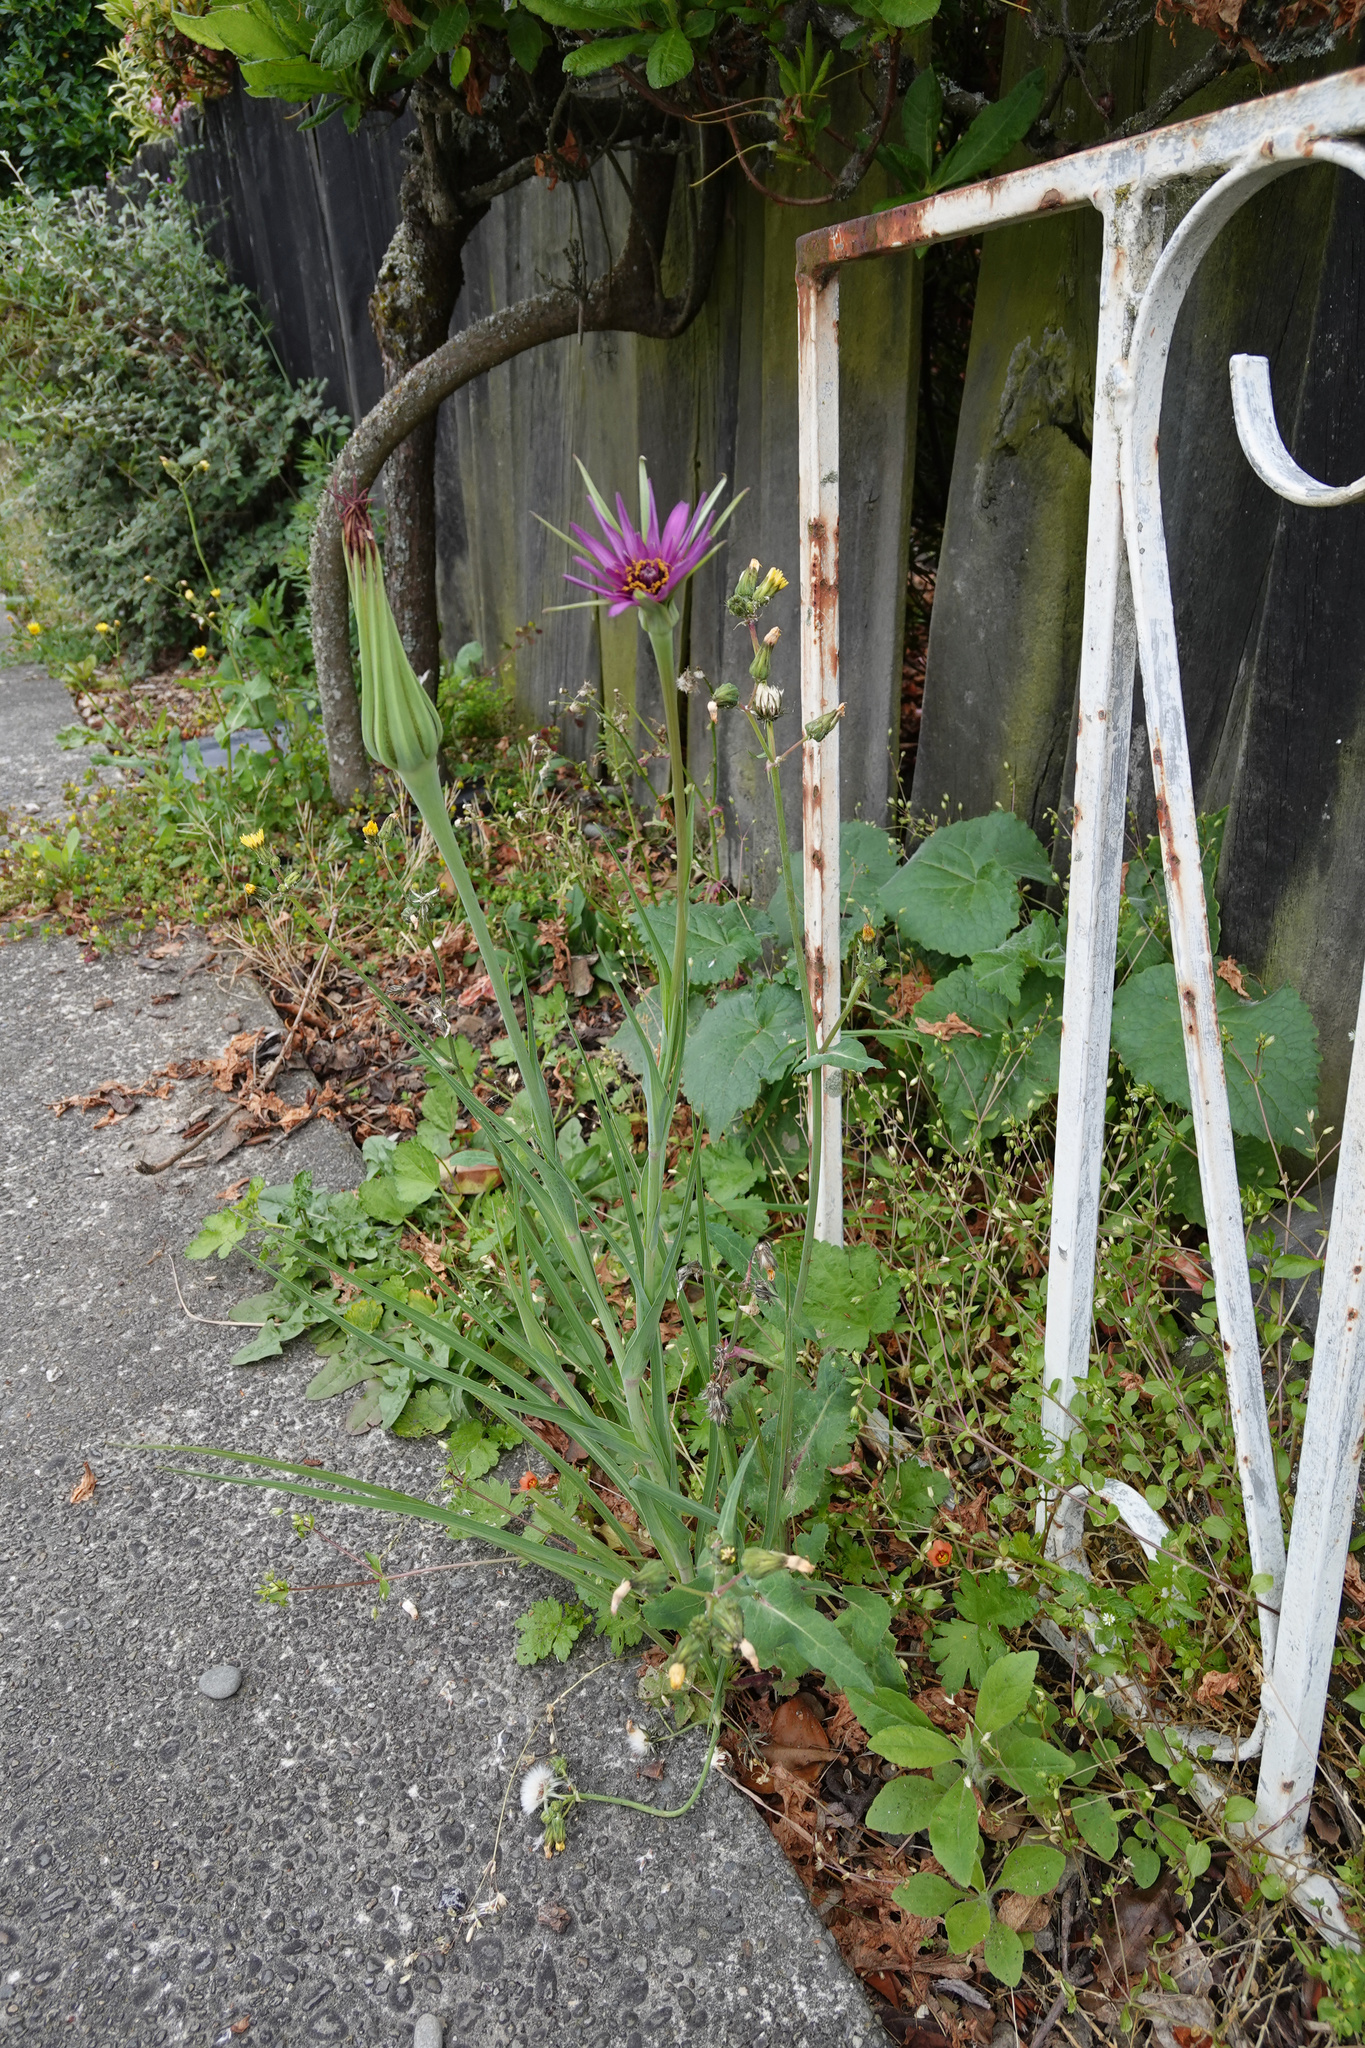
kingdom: Plantae
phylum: Tracheophyta
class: Magnoliopsida
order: Asterales
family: Asteraceae
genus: Tragopogon
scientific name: Tragopogon porrifolius
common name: Salsify
